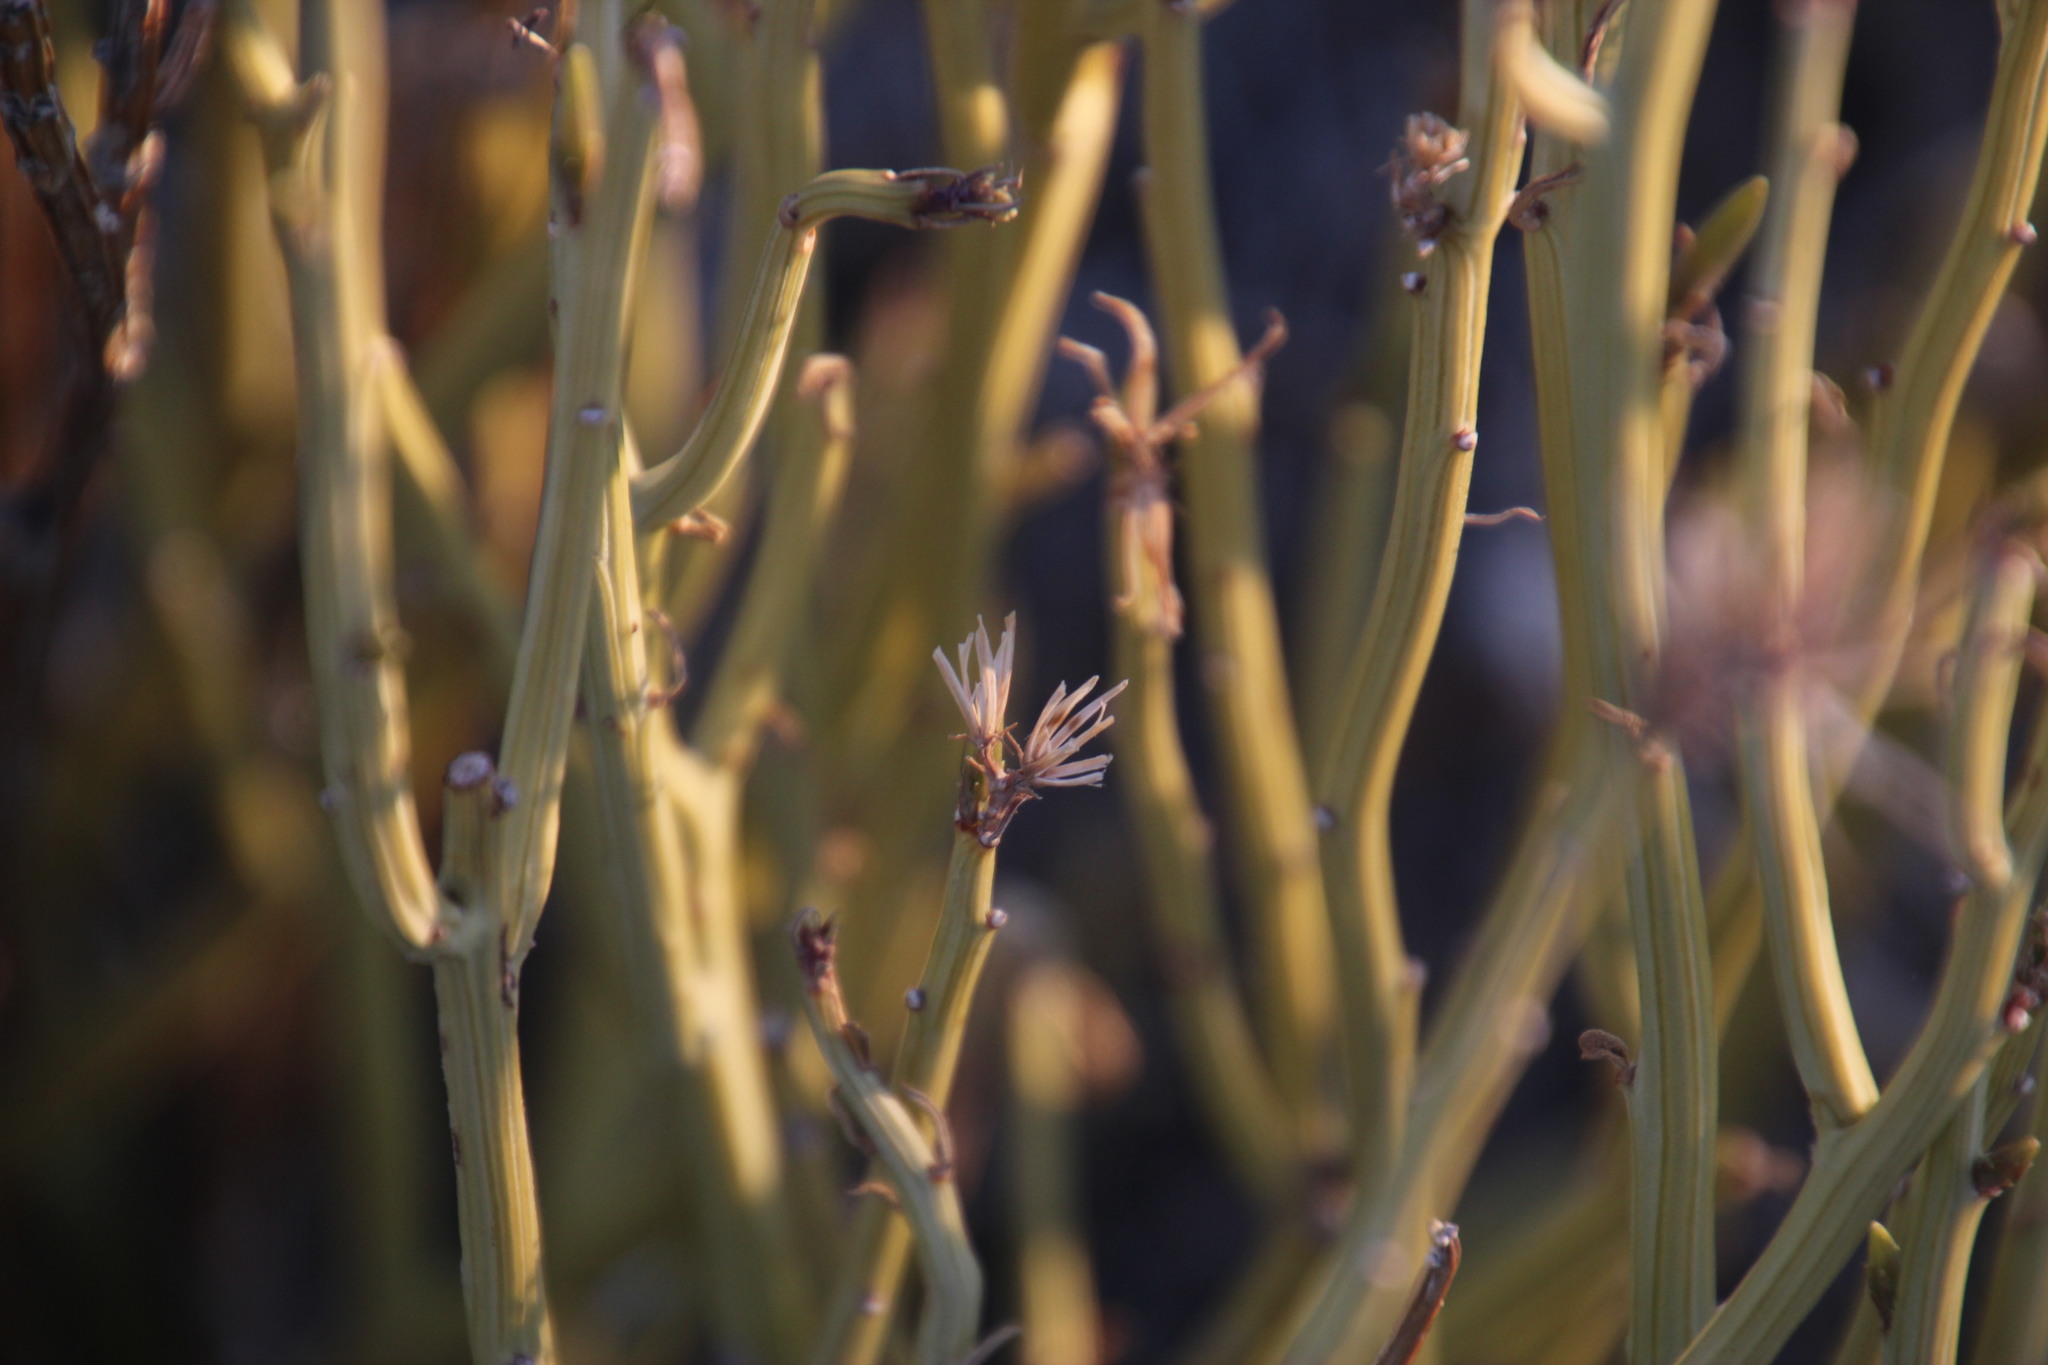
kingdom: Plantae
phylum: Tracheophyta
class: Magnoliopsida
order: Asterales
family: Asteraceae
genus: Curio
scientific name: Curio avasimontanus
